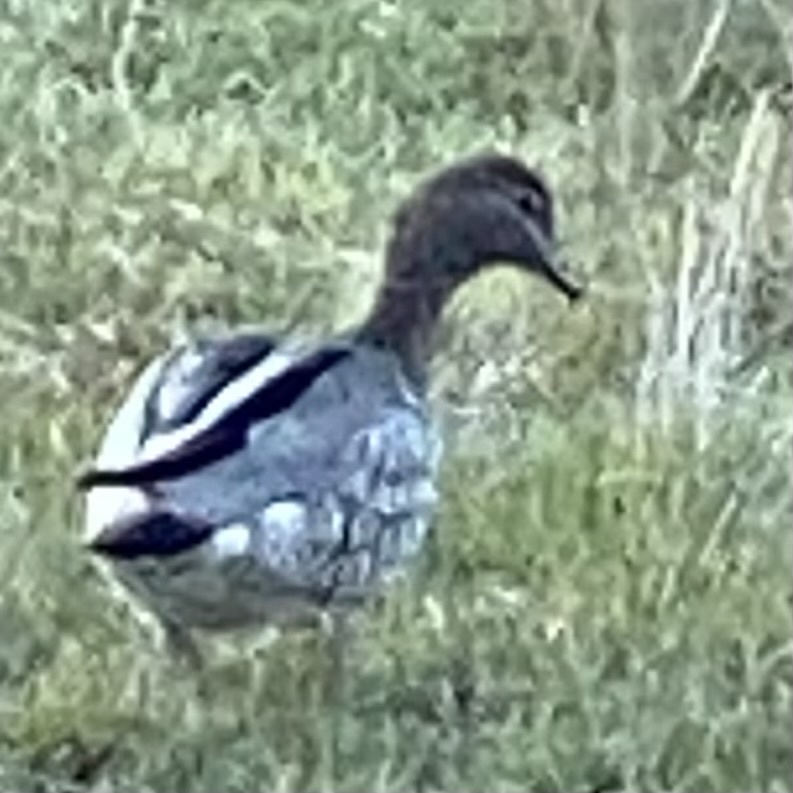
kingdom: Animalia
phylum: Chordata
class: Aves
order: Anseriformes
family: Anatidae
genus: Chenonetta
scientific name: Chenonetta jubata
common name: Maned duck
